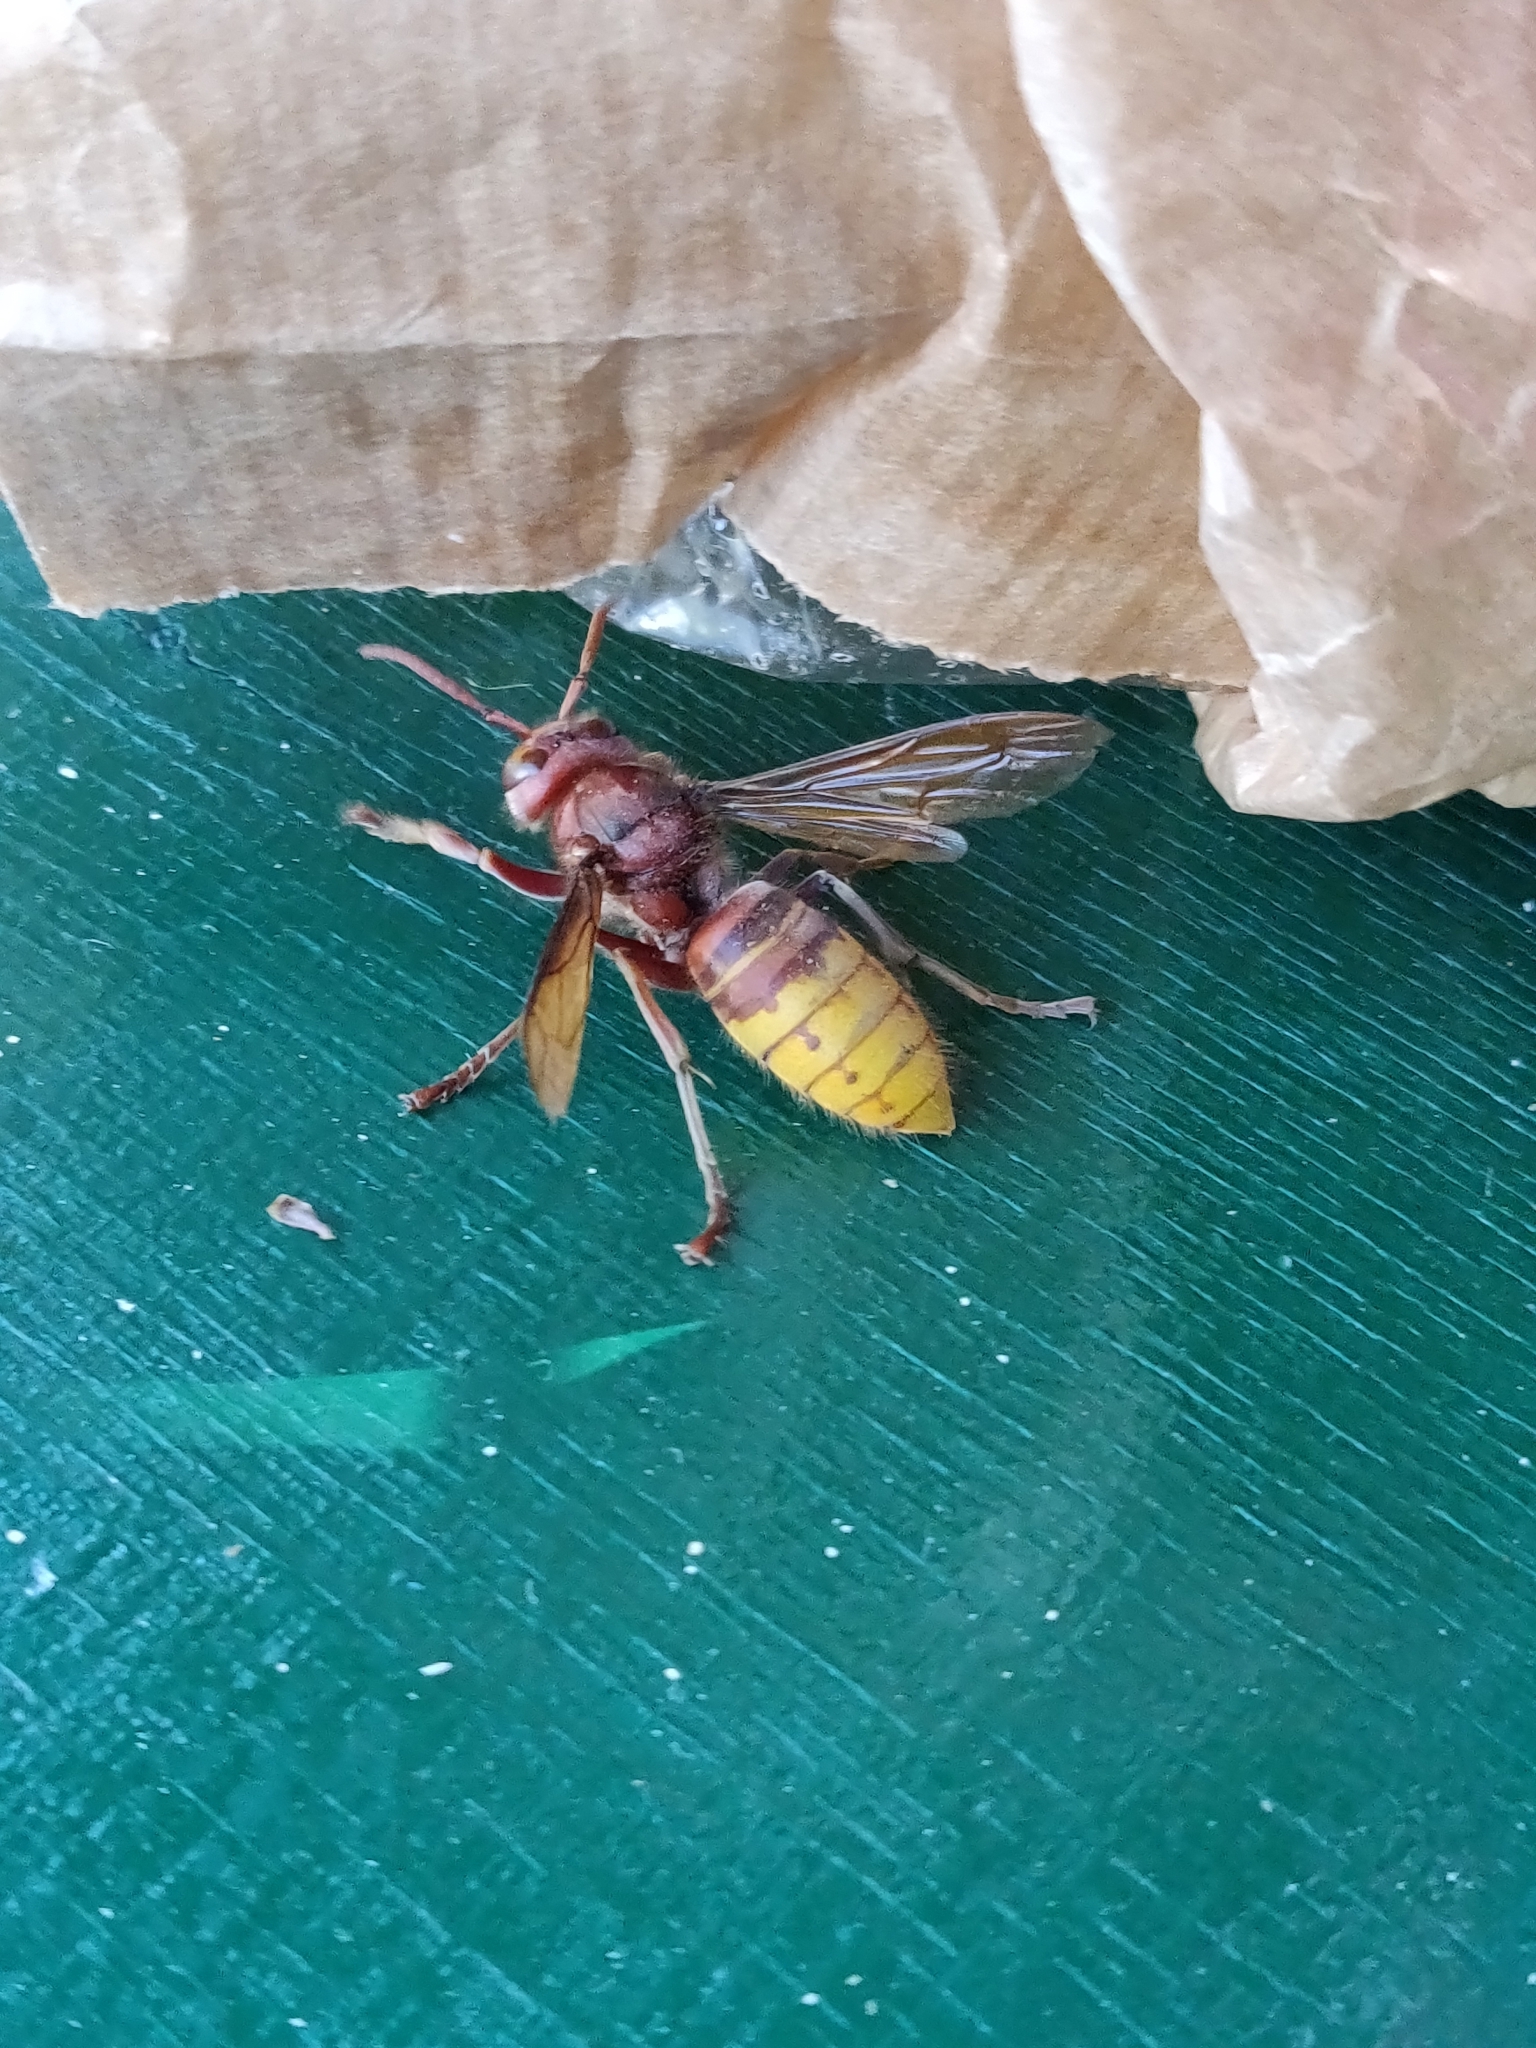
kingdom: Animalia
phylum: Arthropoda
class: Insecta
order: Hymenoptera
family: Vespidae
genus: Vespa
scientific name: Vespa crabro
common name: Hornet
